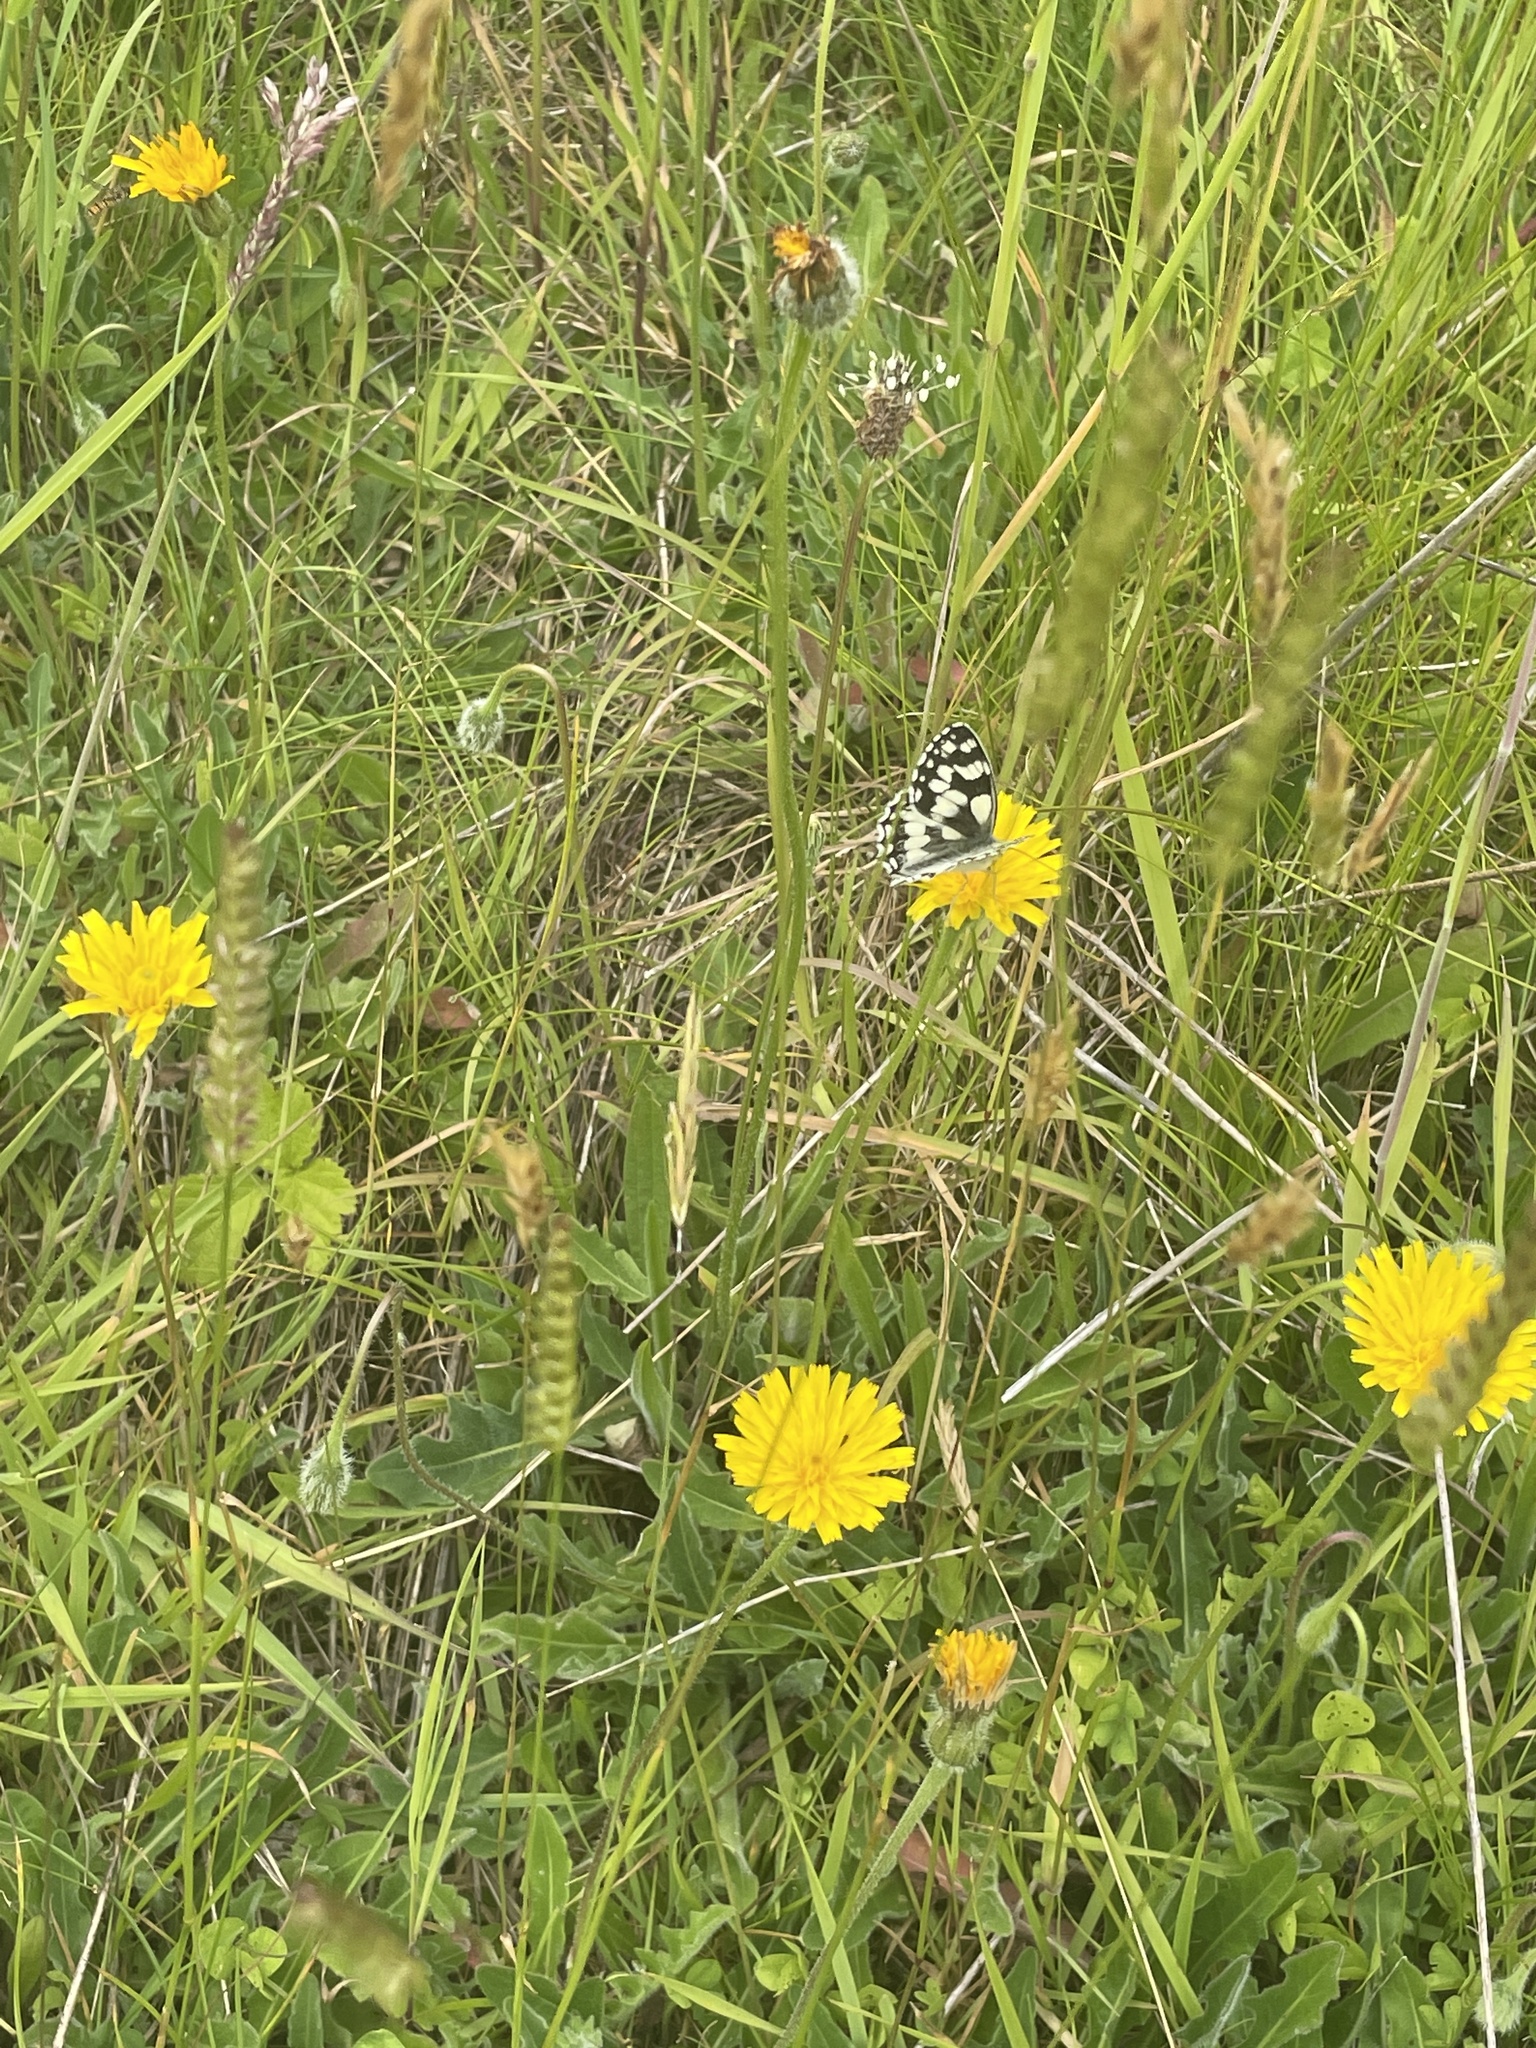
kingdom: Animalia
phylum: Arthropoda
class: Insecta
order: Lepidoptera
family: Nymphalidae
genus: Melanargia
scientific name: Melanargia galathea
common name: Marbled white
